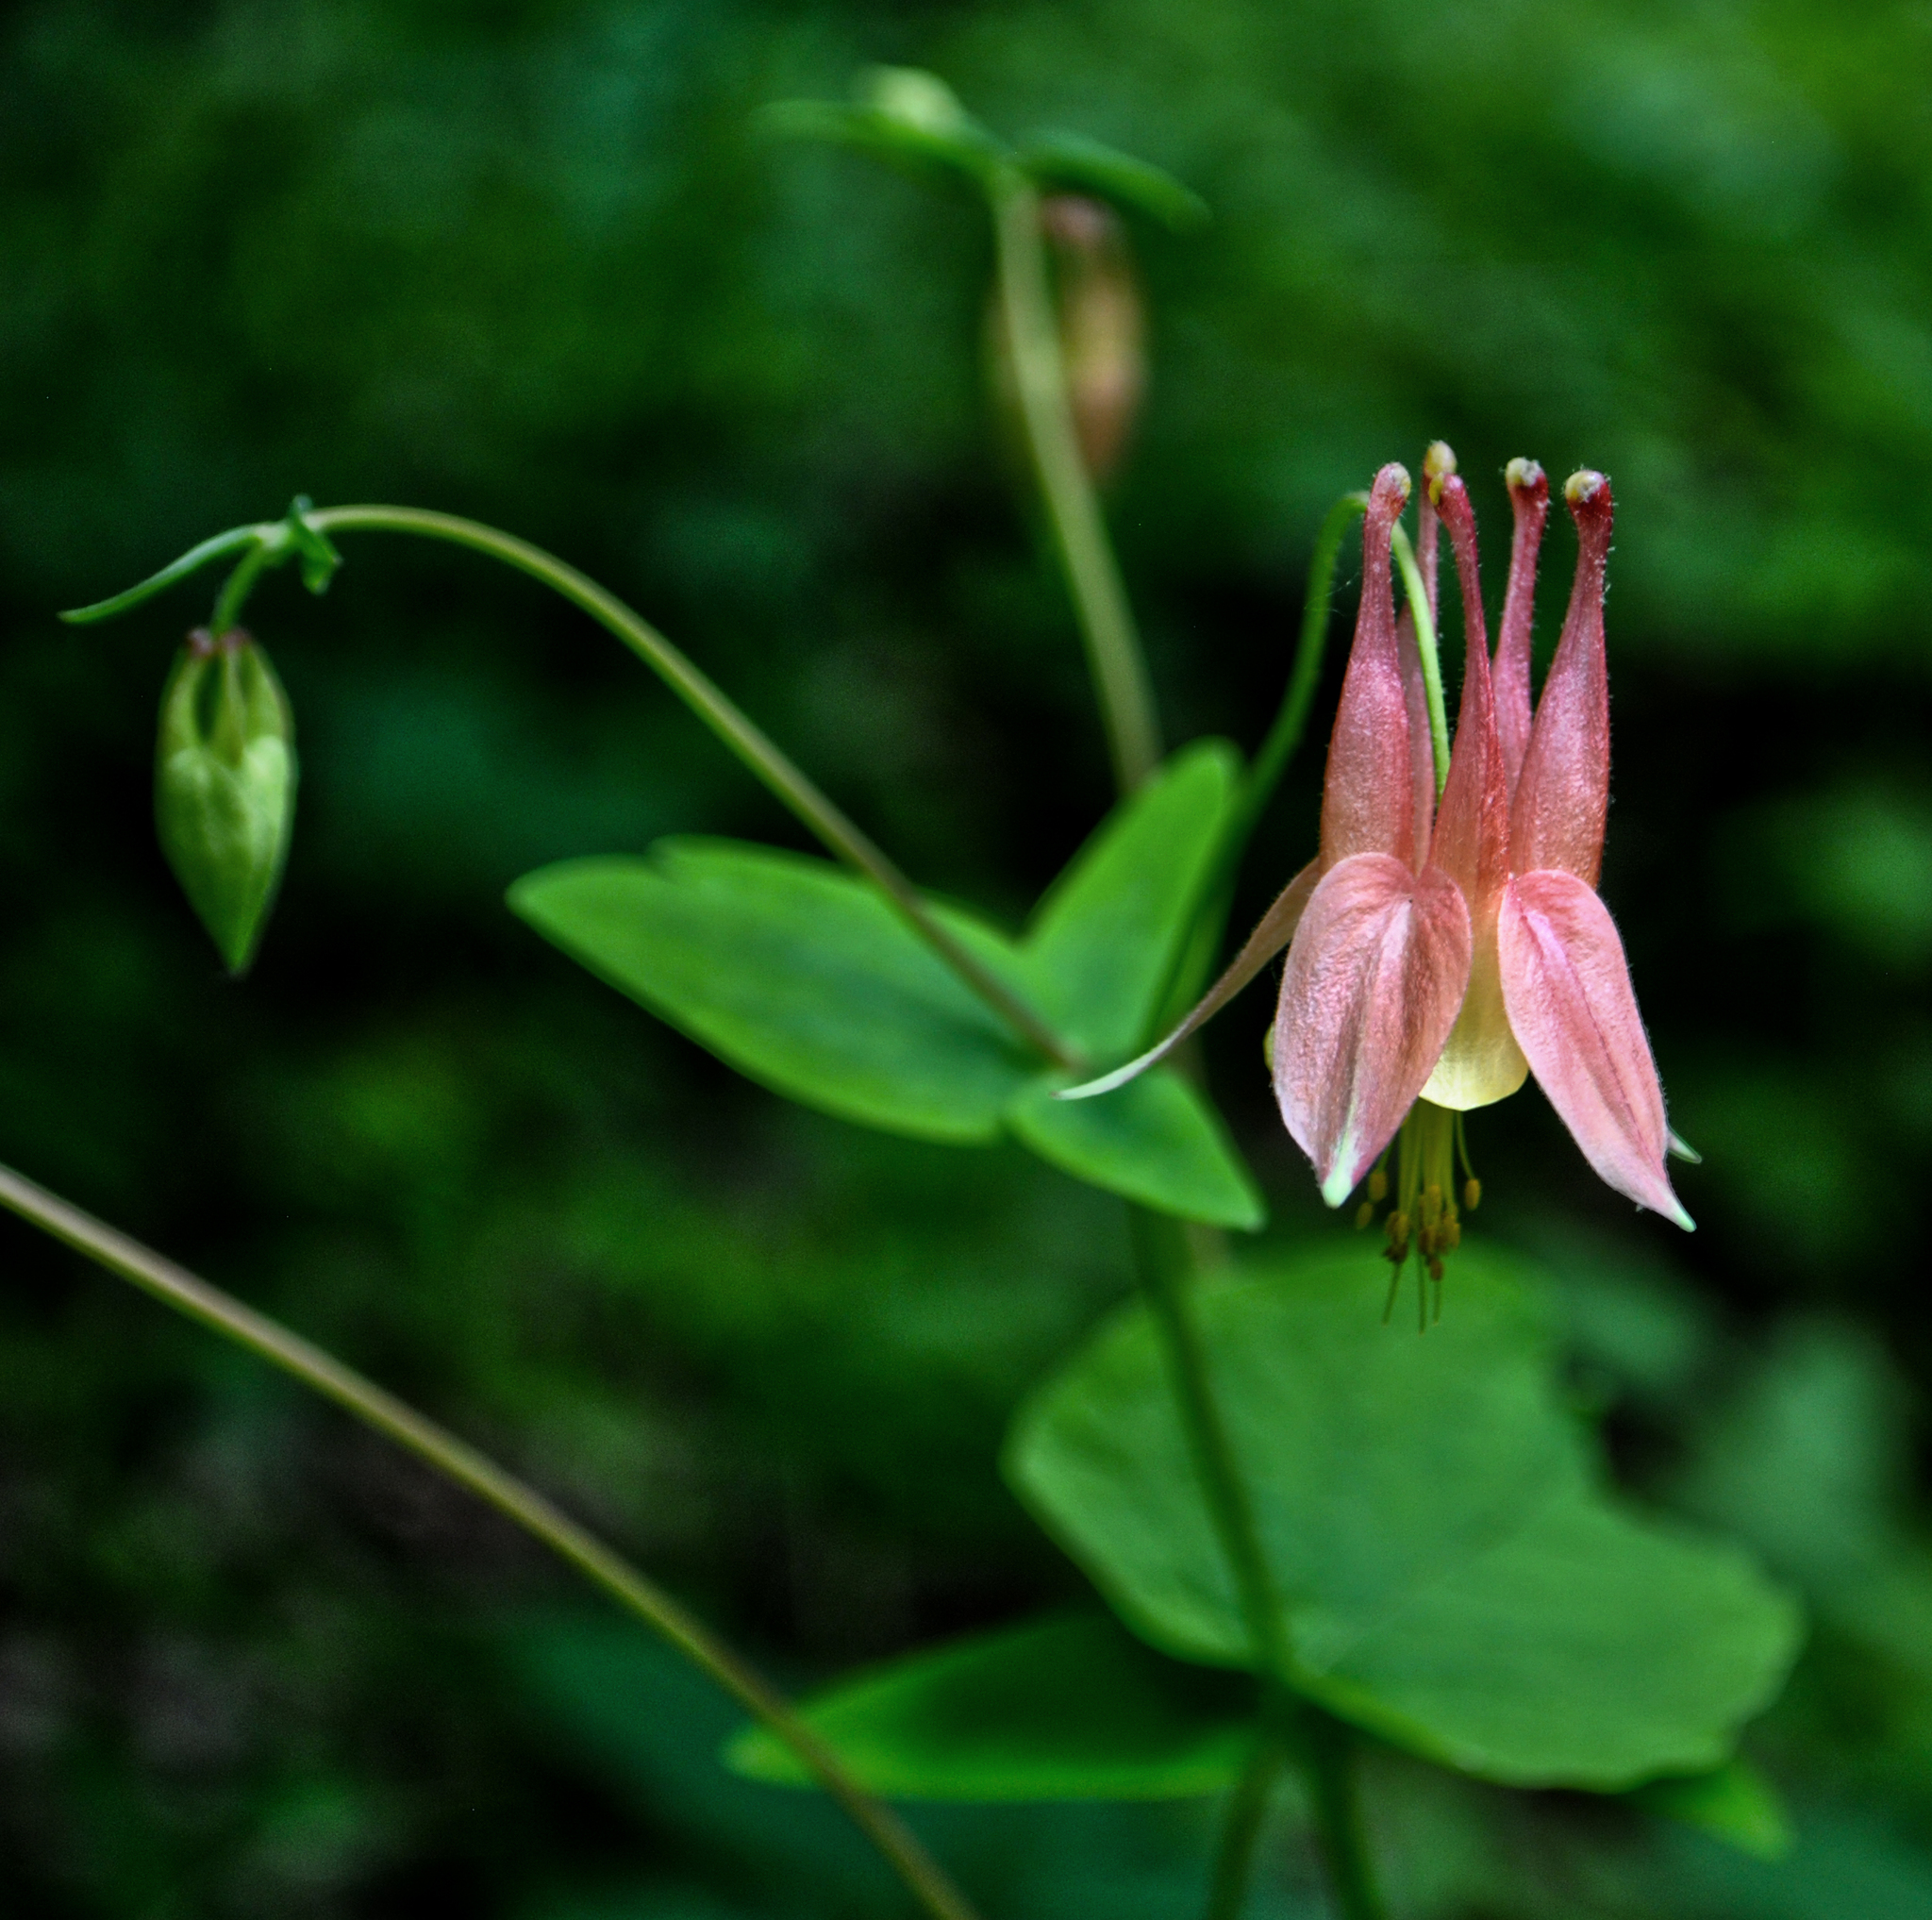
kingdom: Plantae
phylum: Tracheophyta
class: Magnoliopsida
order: Ranunculales
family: Ranunculaceae
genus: Aquilegia
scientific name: Aquilegia canadensis
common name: American columbine
